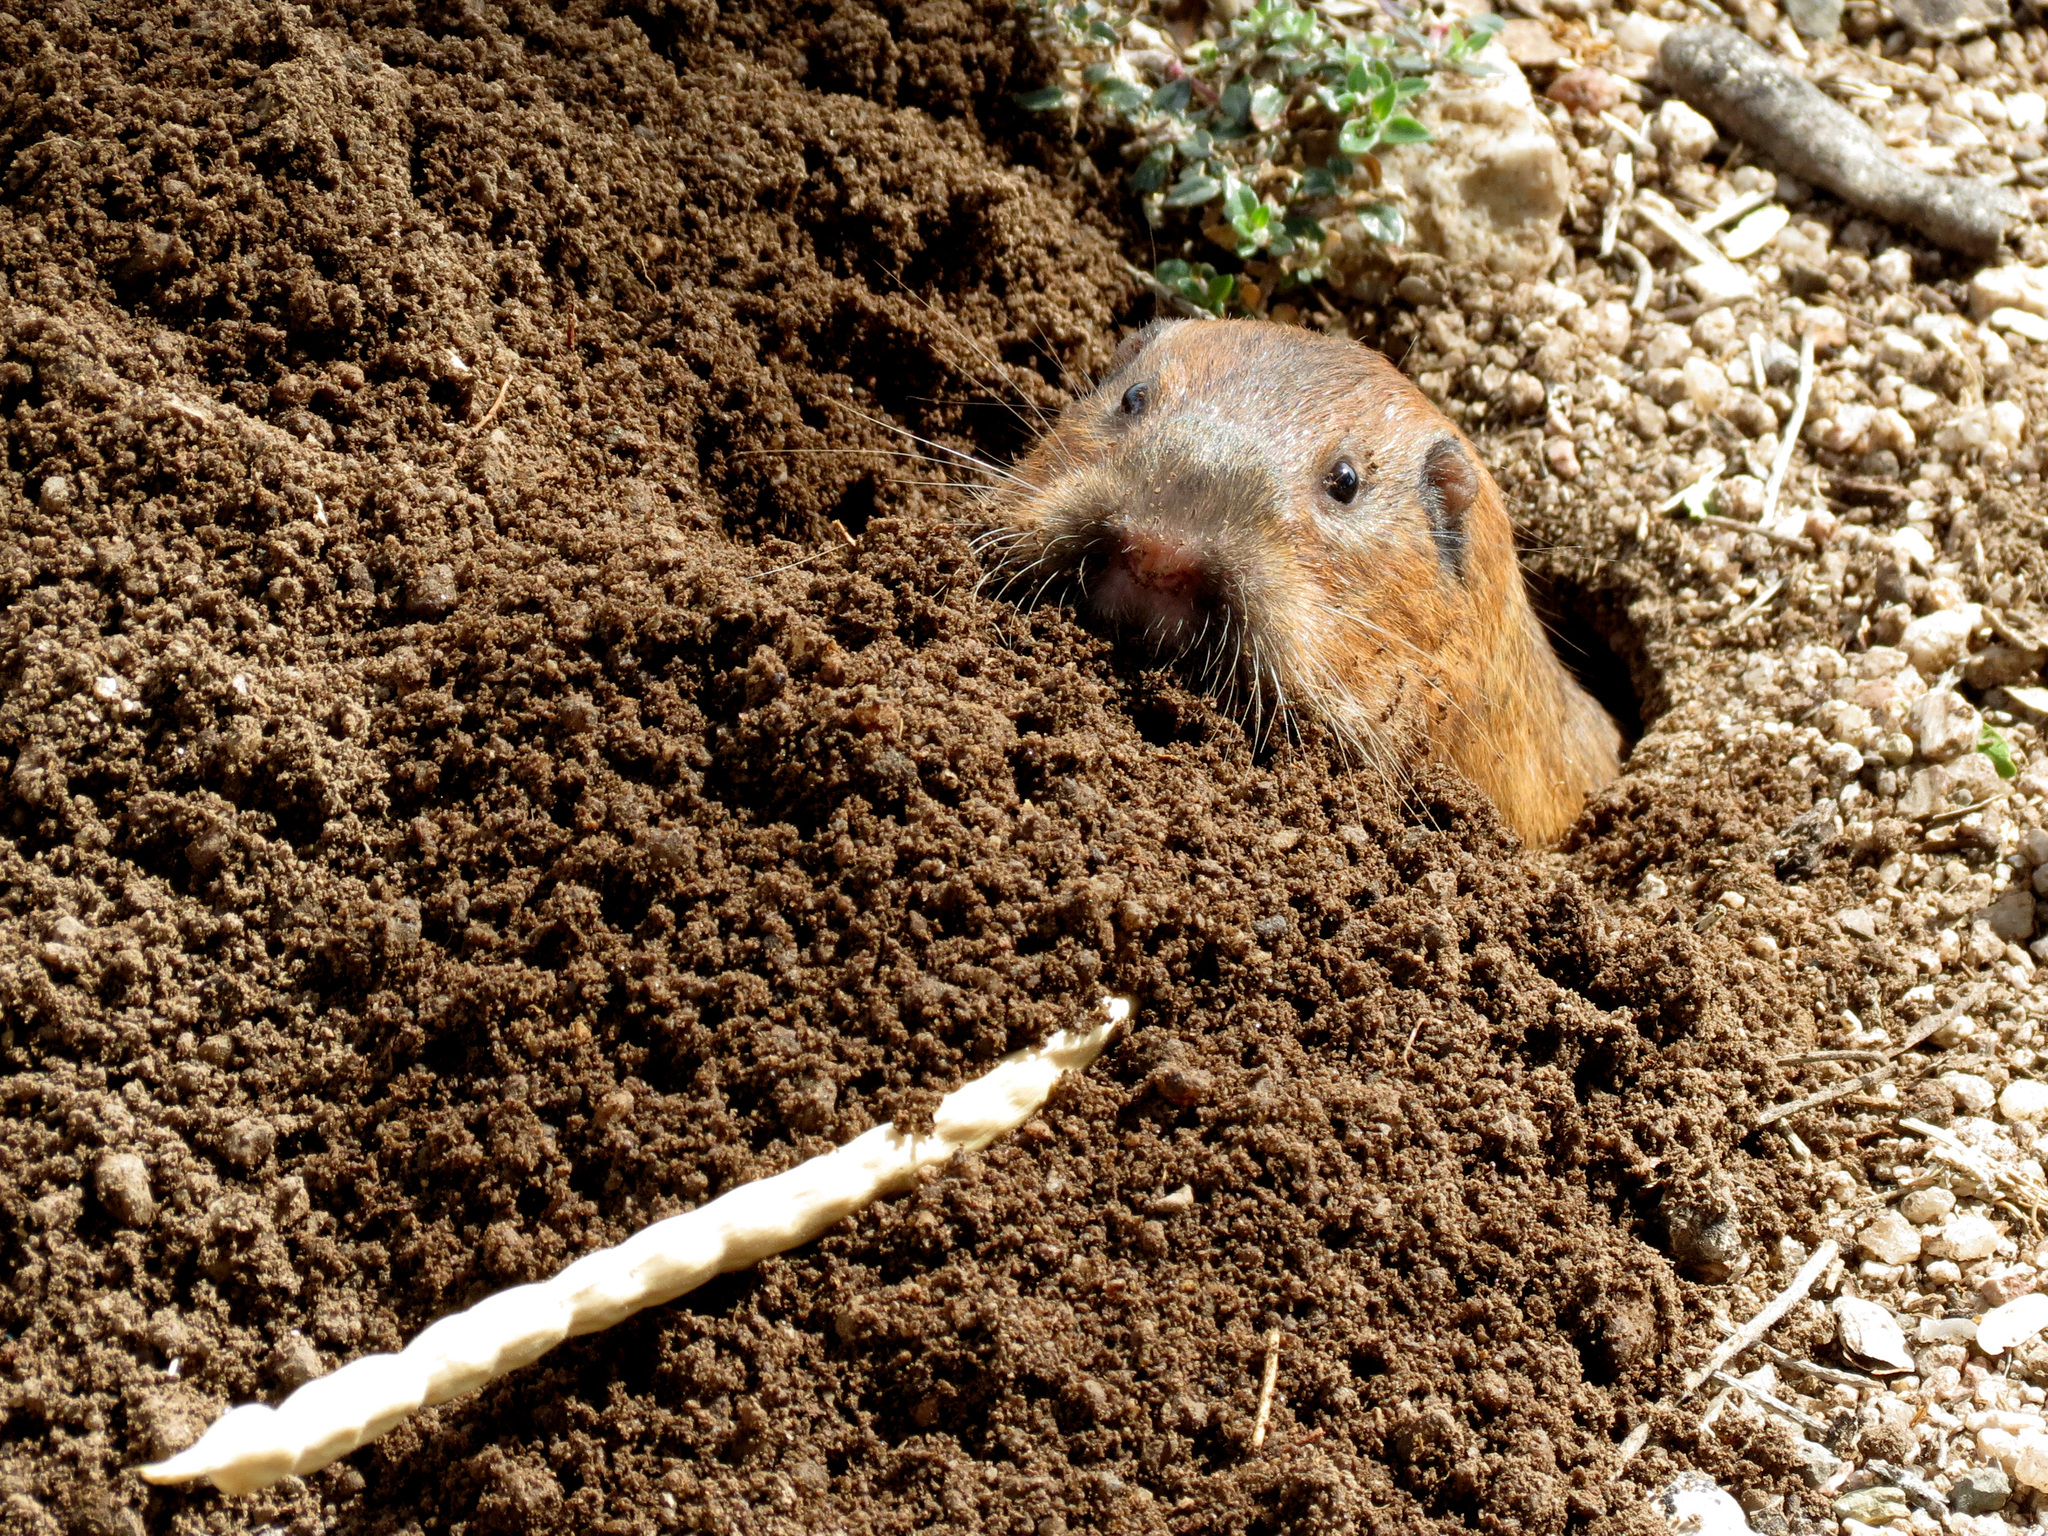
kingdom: Animalia
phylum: Chordata
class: Mammalia
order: Rodentia
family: Geomyidae
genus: Thomomys
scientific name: Thomomys bottae
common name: Botta's pocket gopher
